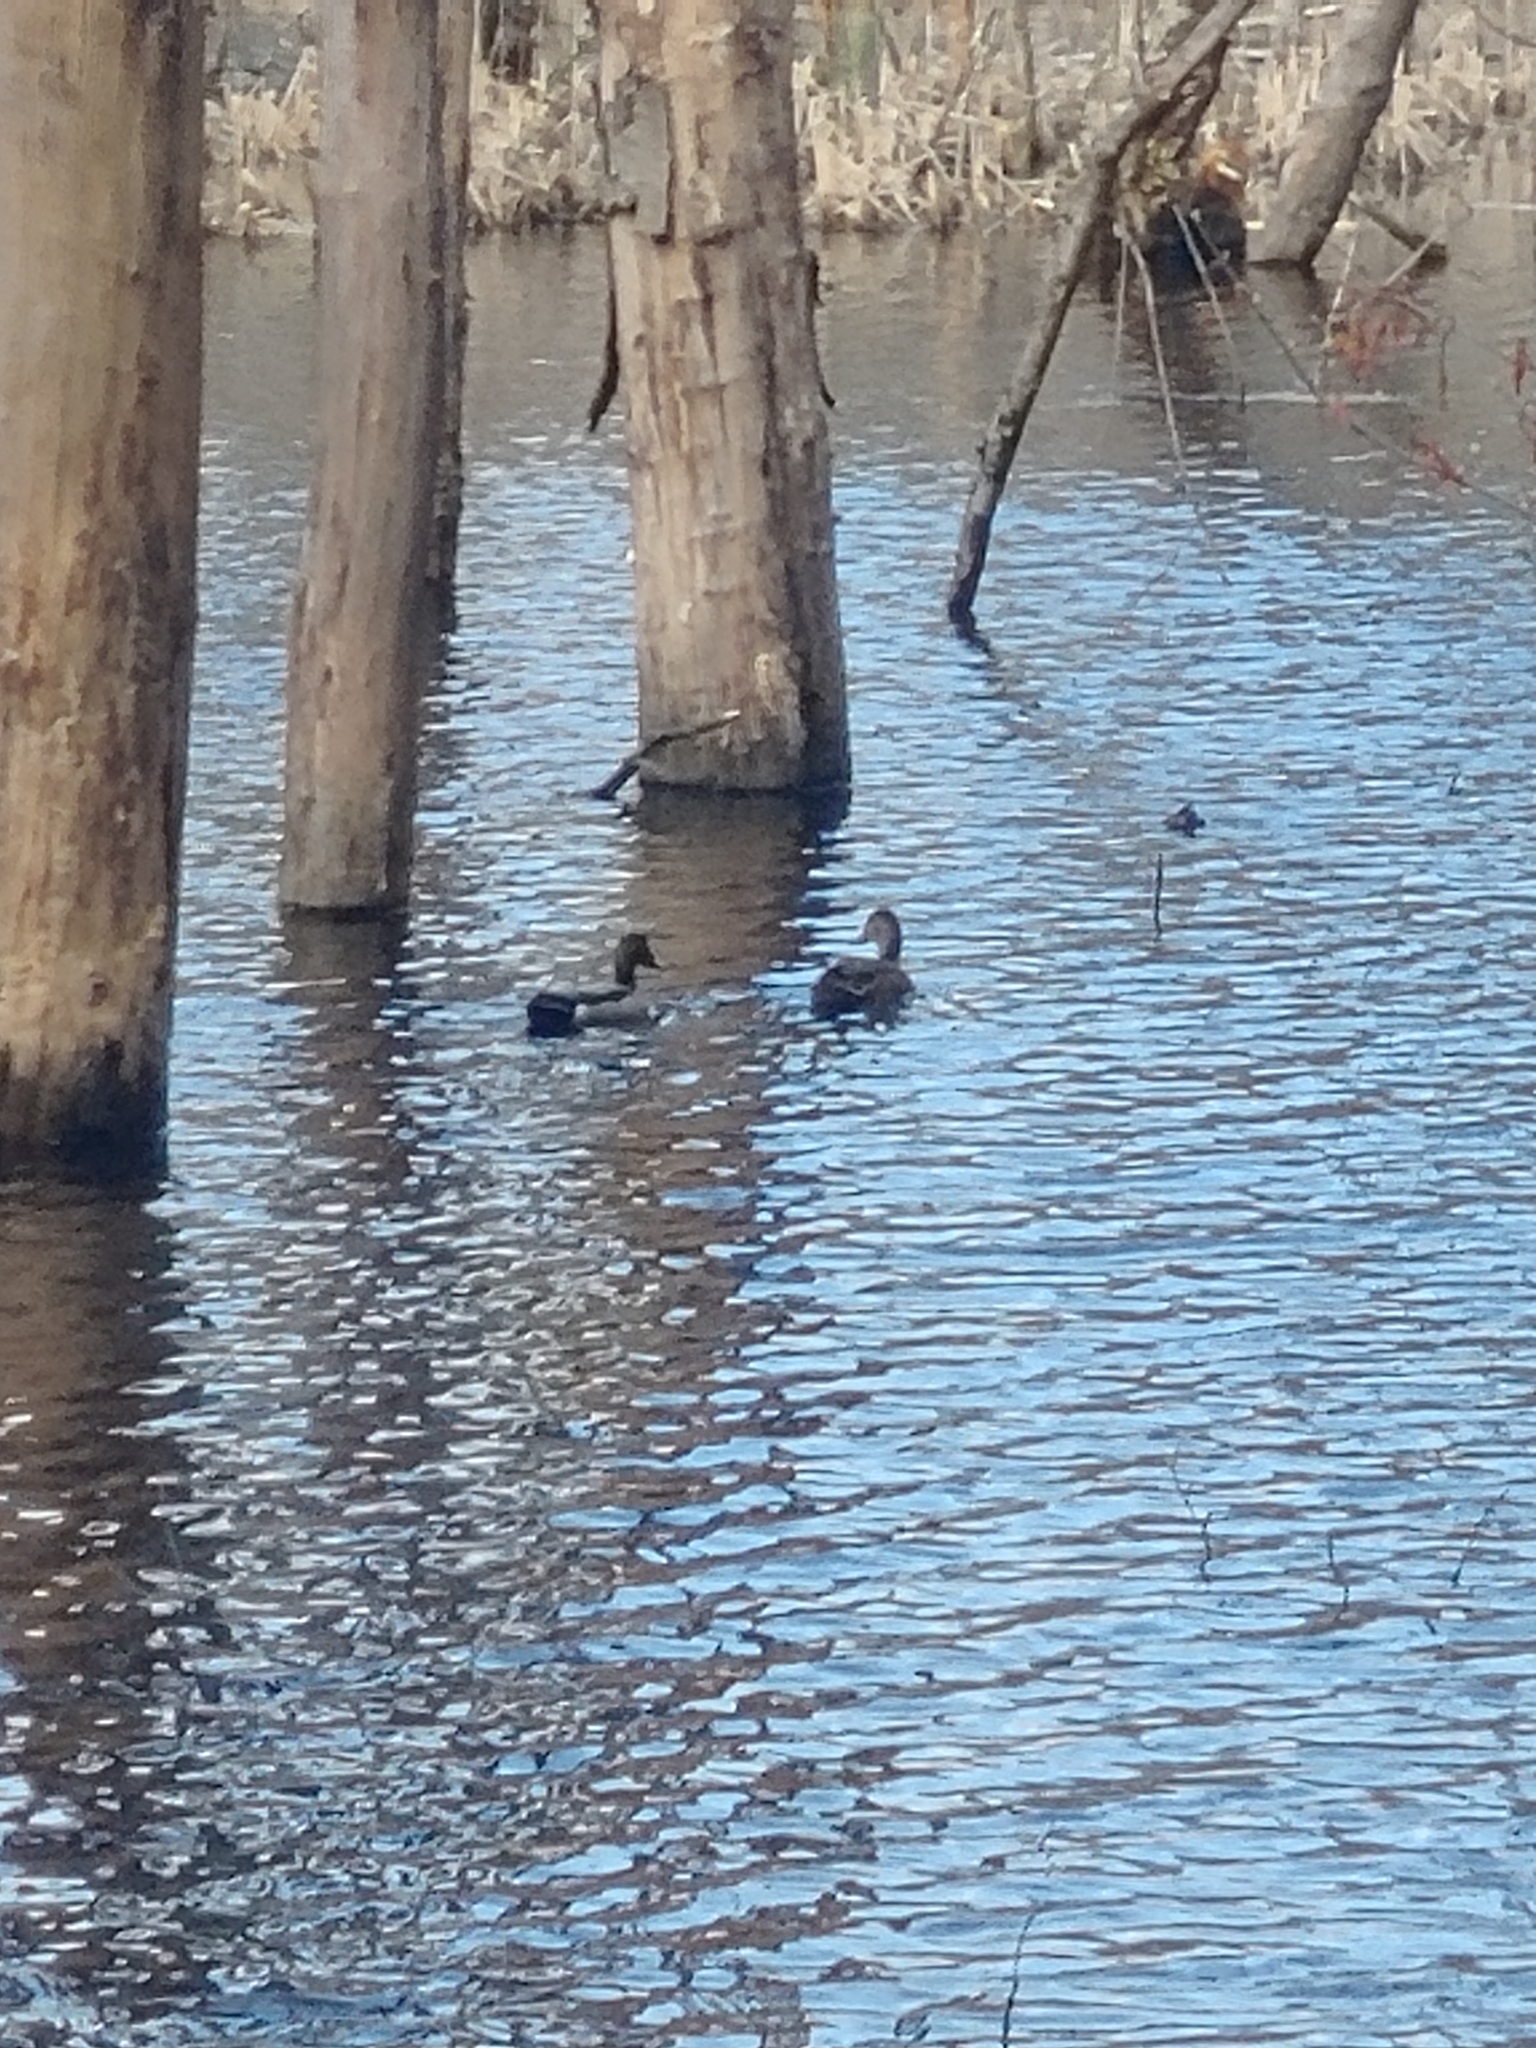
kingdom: Animalia
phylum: Chordata
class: Aves
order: Anseriformes
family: Anatidae
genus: Anas
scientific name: Anas platyrhynchos
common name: Mallard
